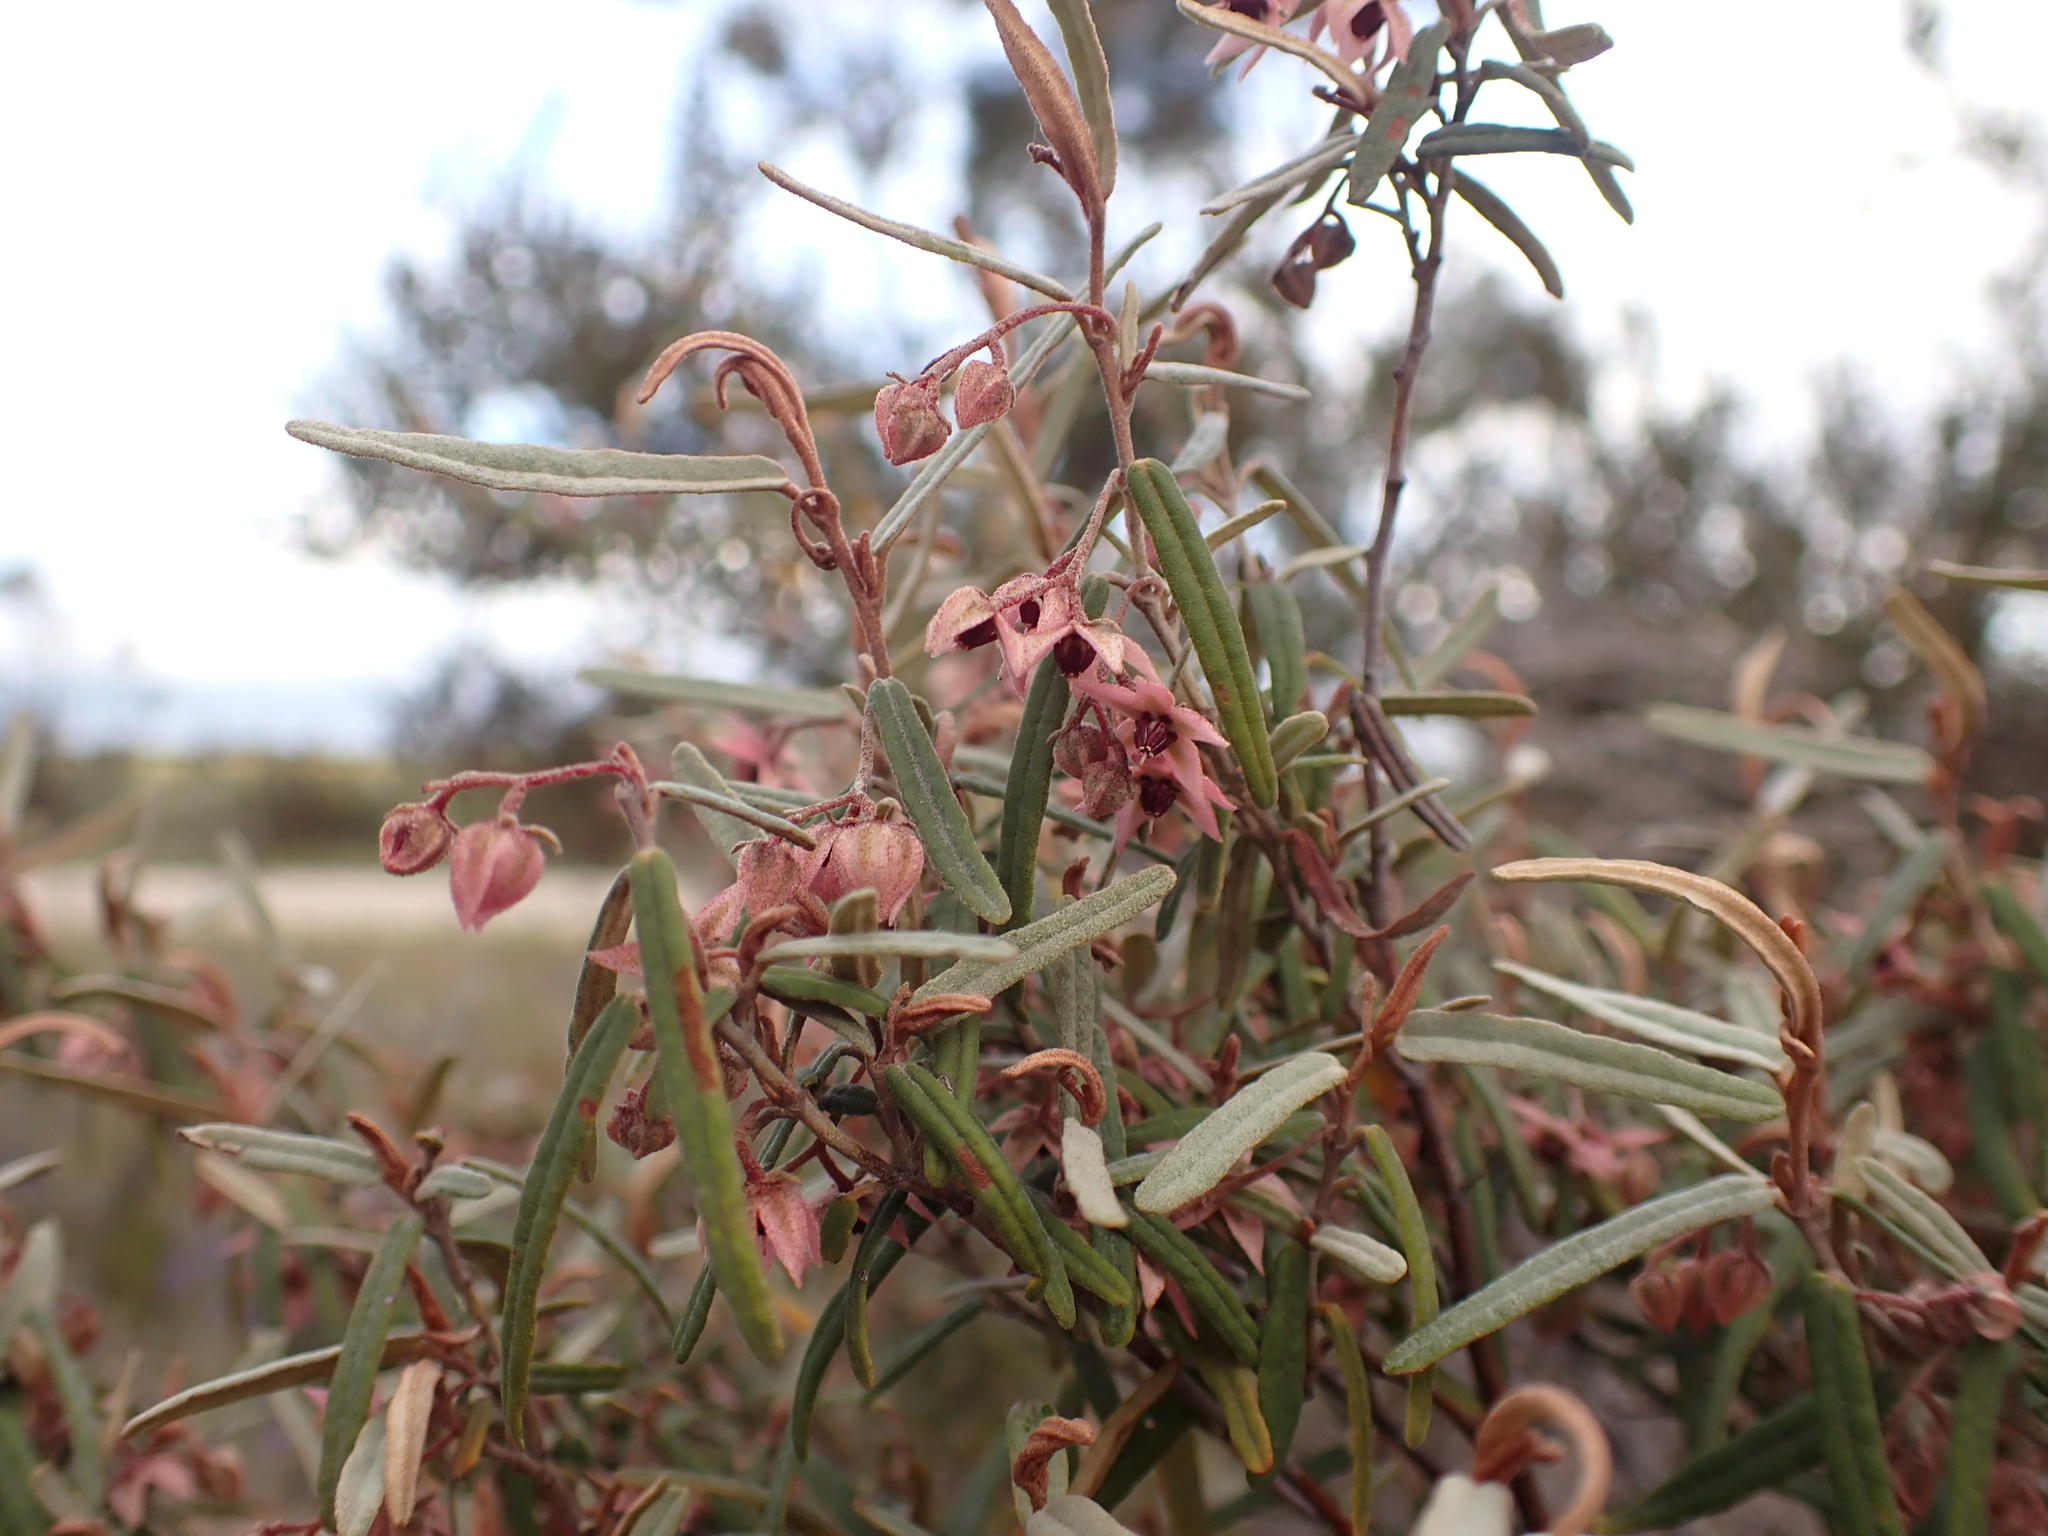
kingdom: Plantae
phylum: Tracheophyta
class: Magnoliopsida
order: Malvales
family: Malvaceae
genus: Lasiopetalum
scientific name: Lasiopetalum baueri
